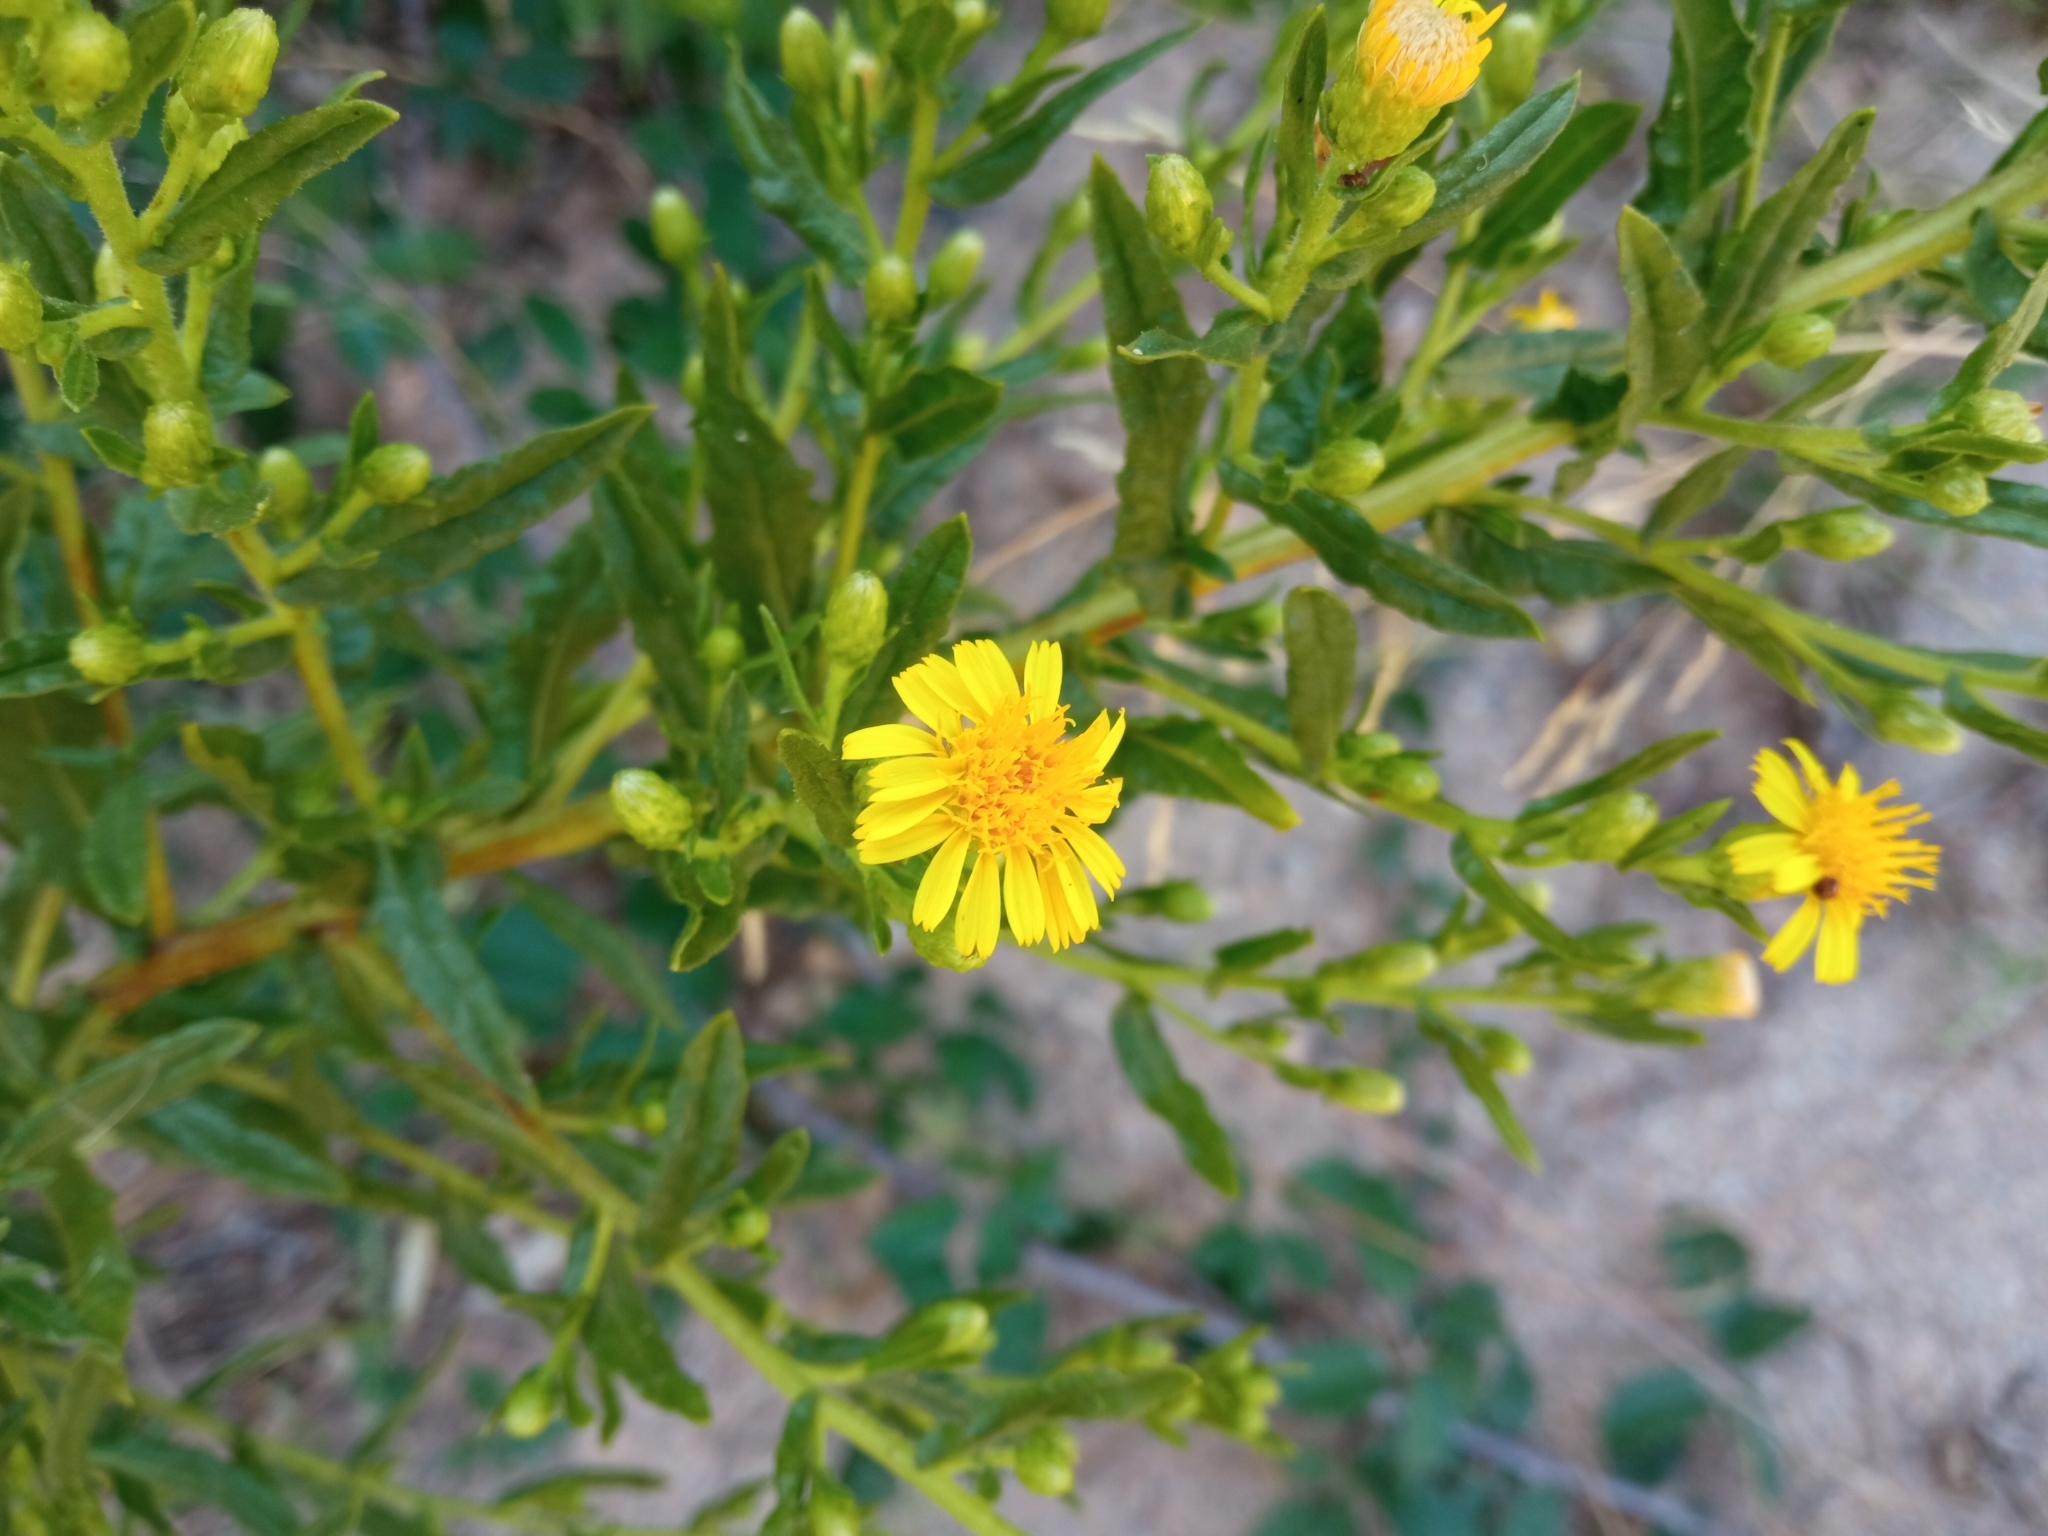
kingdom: Plantae
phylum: Tracheophyta
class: Magnoliopsida
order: Asterales
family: Asteraceae
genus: Dittrichia
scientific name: Dittrichia viscosa
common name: Woody fleabane
